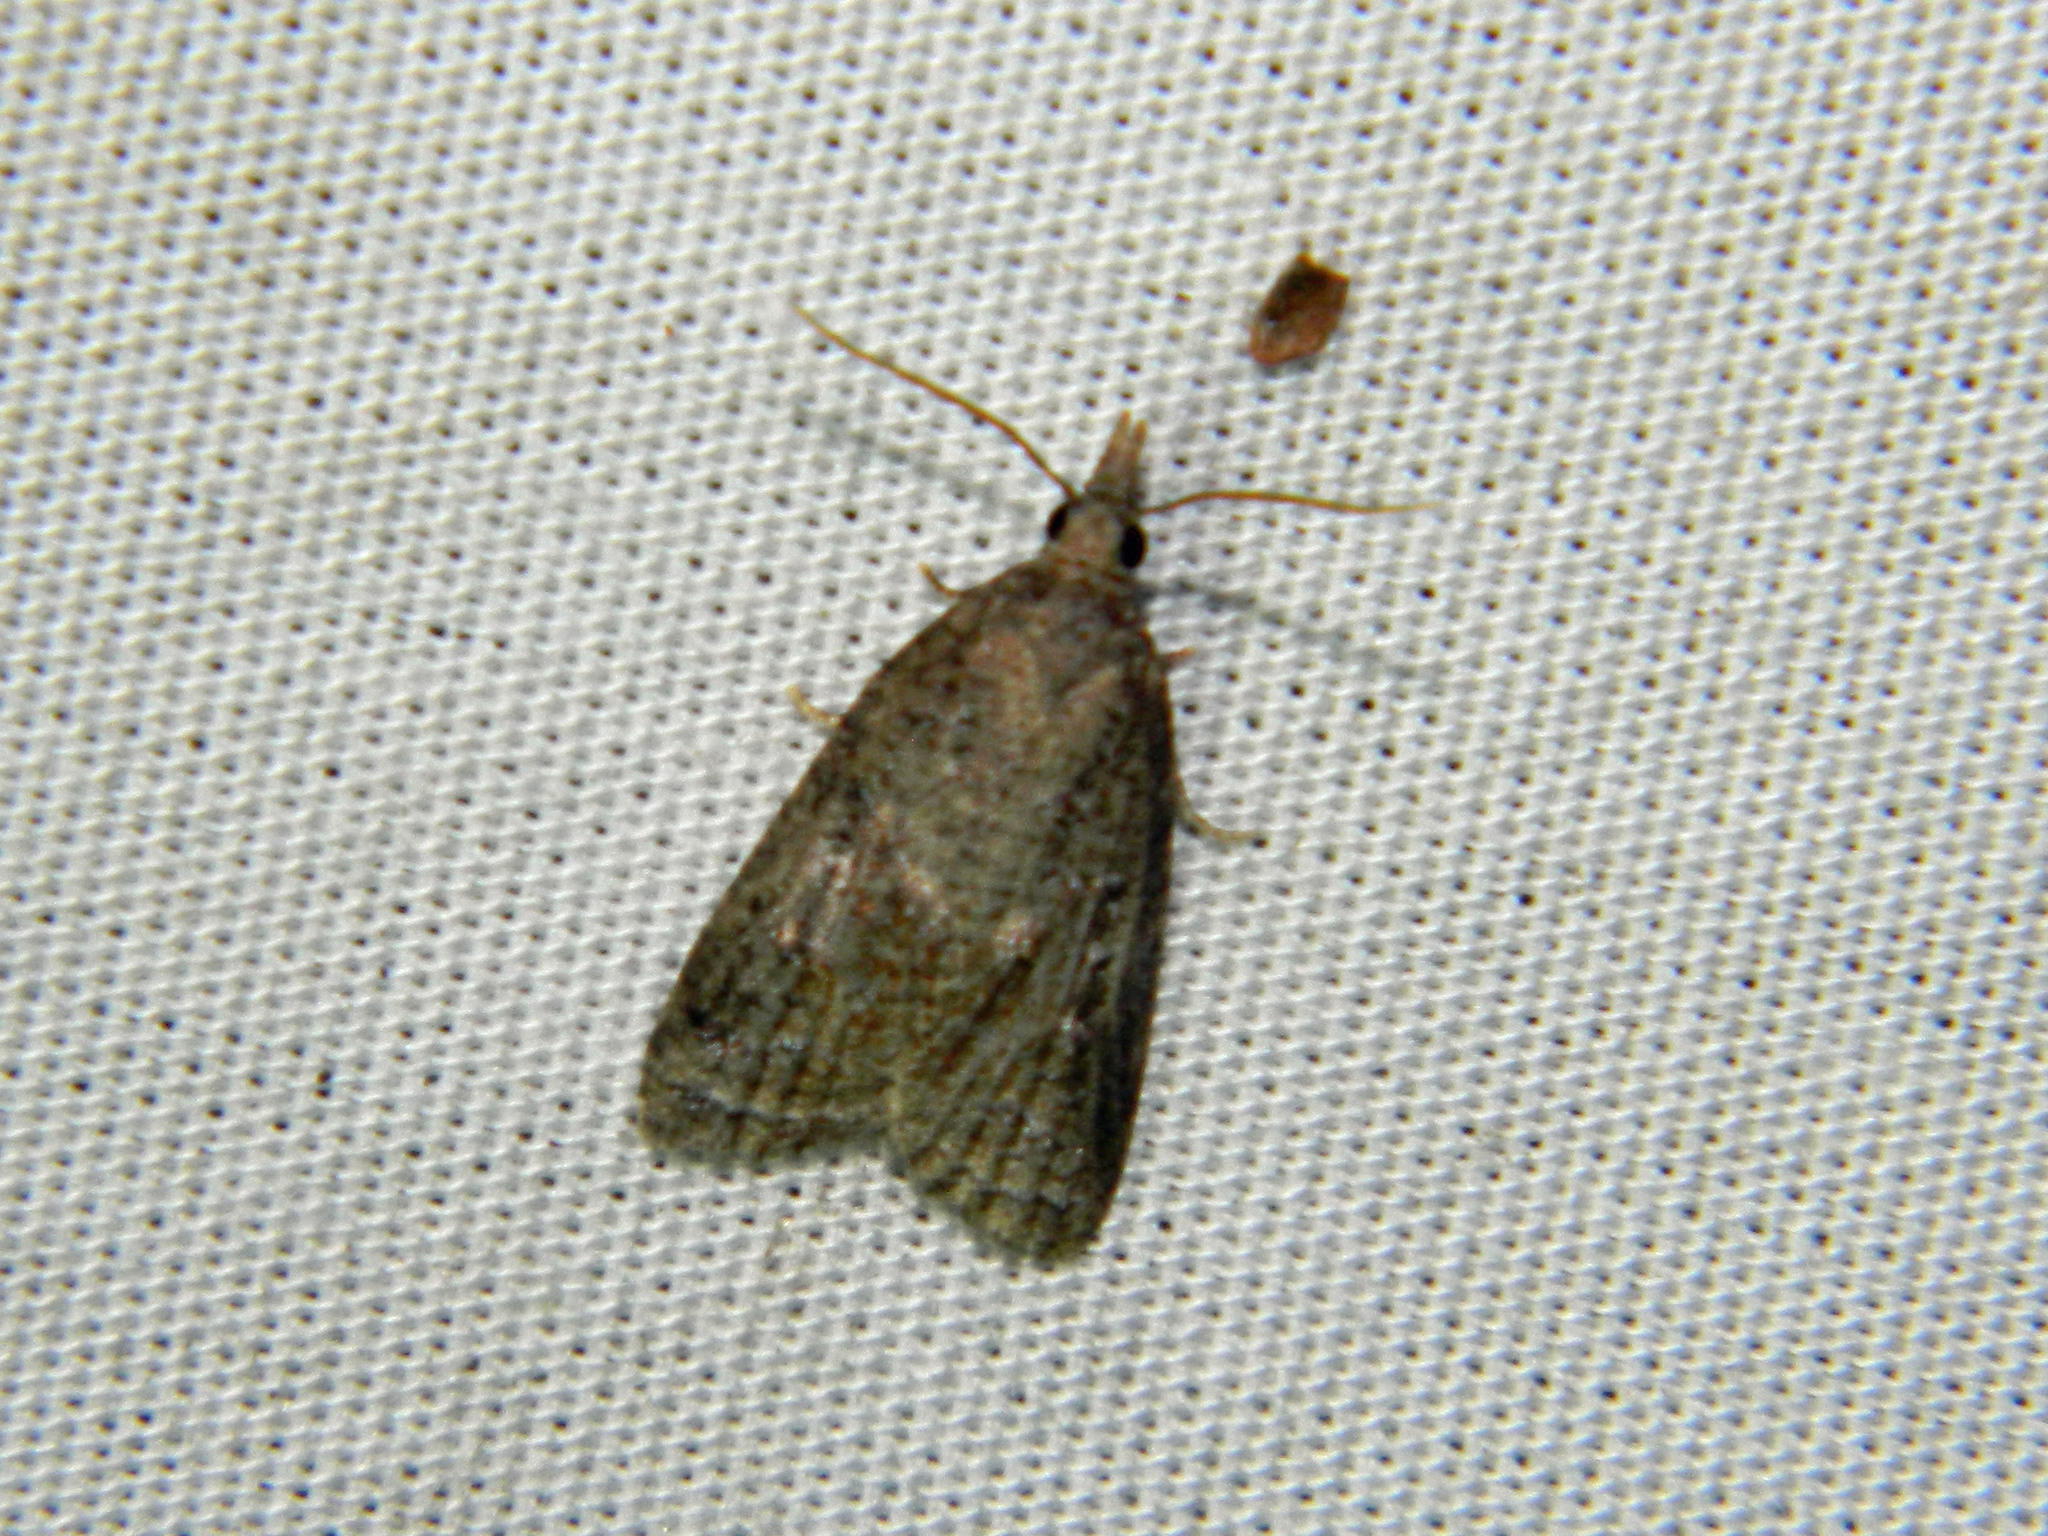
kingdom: Animalia
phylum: Arthropoda
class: Insecta
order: Lepidoptera
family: Tortricidae
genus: Platynota
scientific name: Platynota idaeusalis
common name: Tufted apple bud moth
